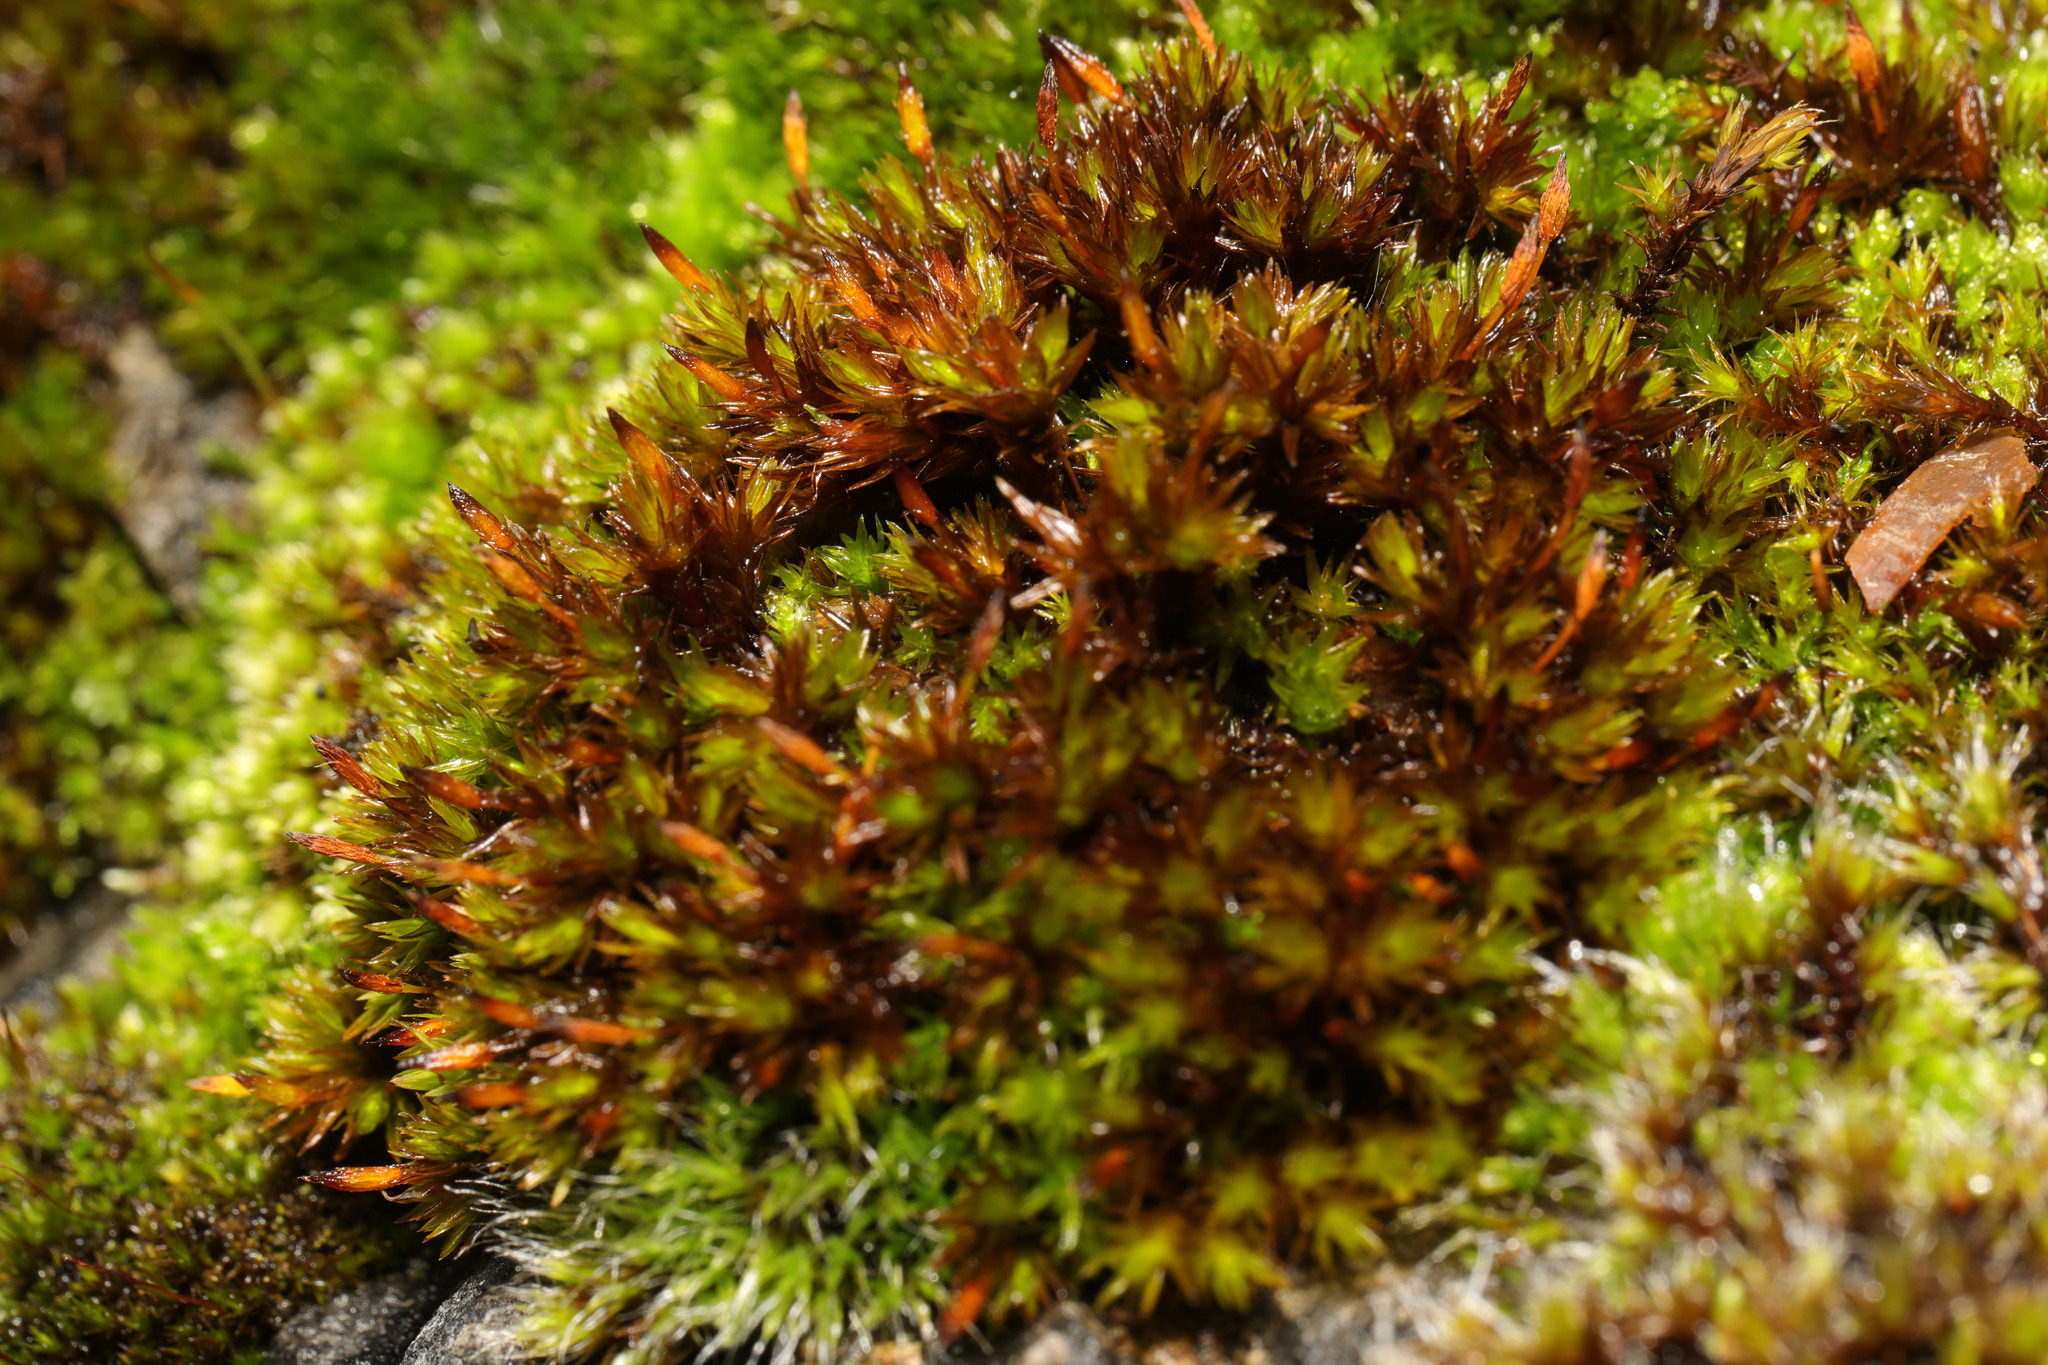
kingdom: Plantae
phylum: Bryophyta
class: Bryopsida
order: Orthotrichales
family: Orthotrichaceae
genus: Orthotrichum
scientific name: Orthotrichum anomalum
